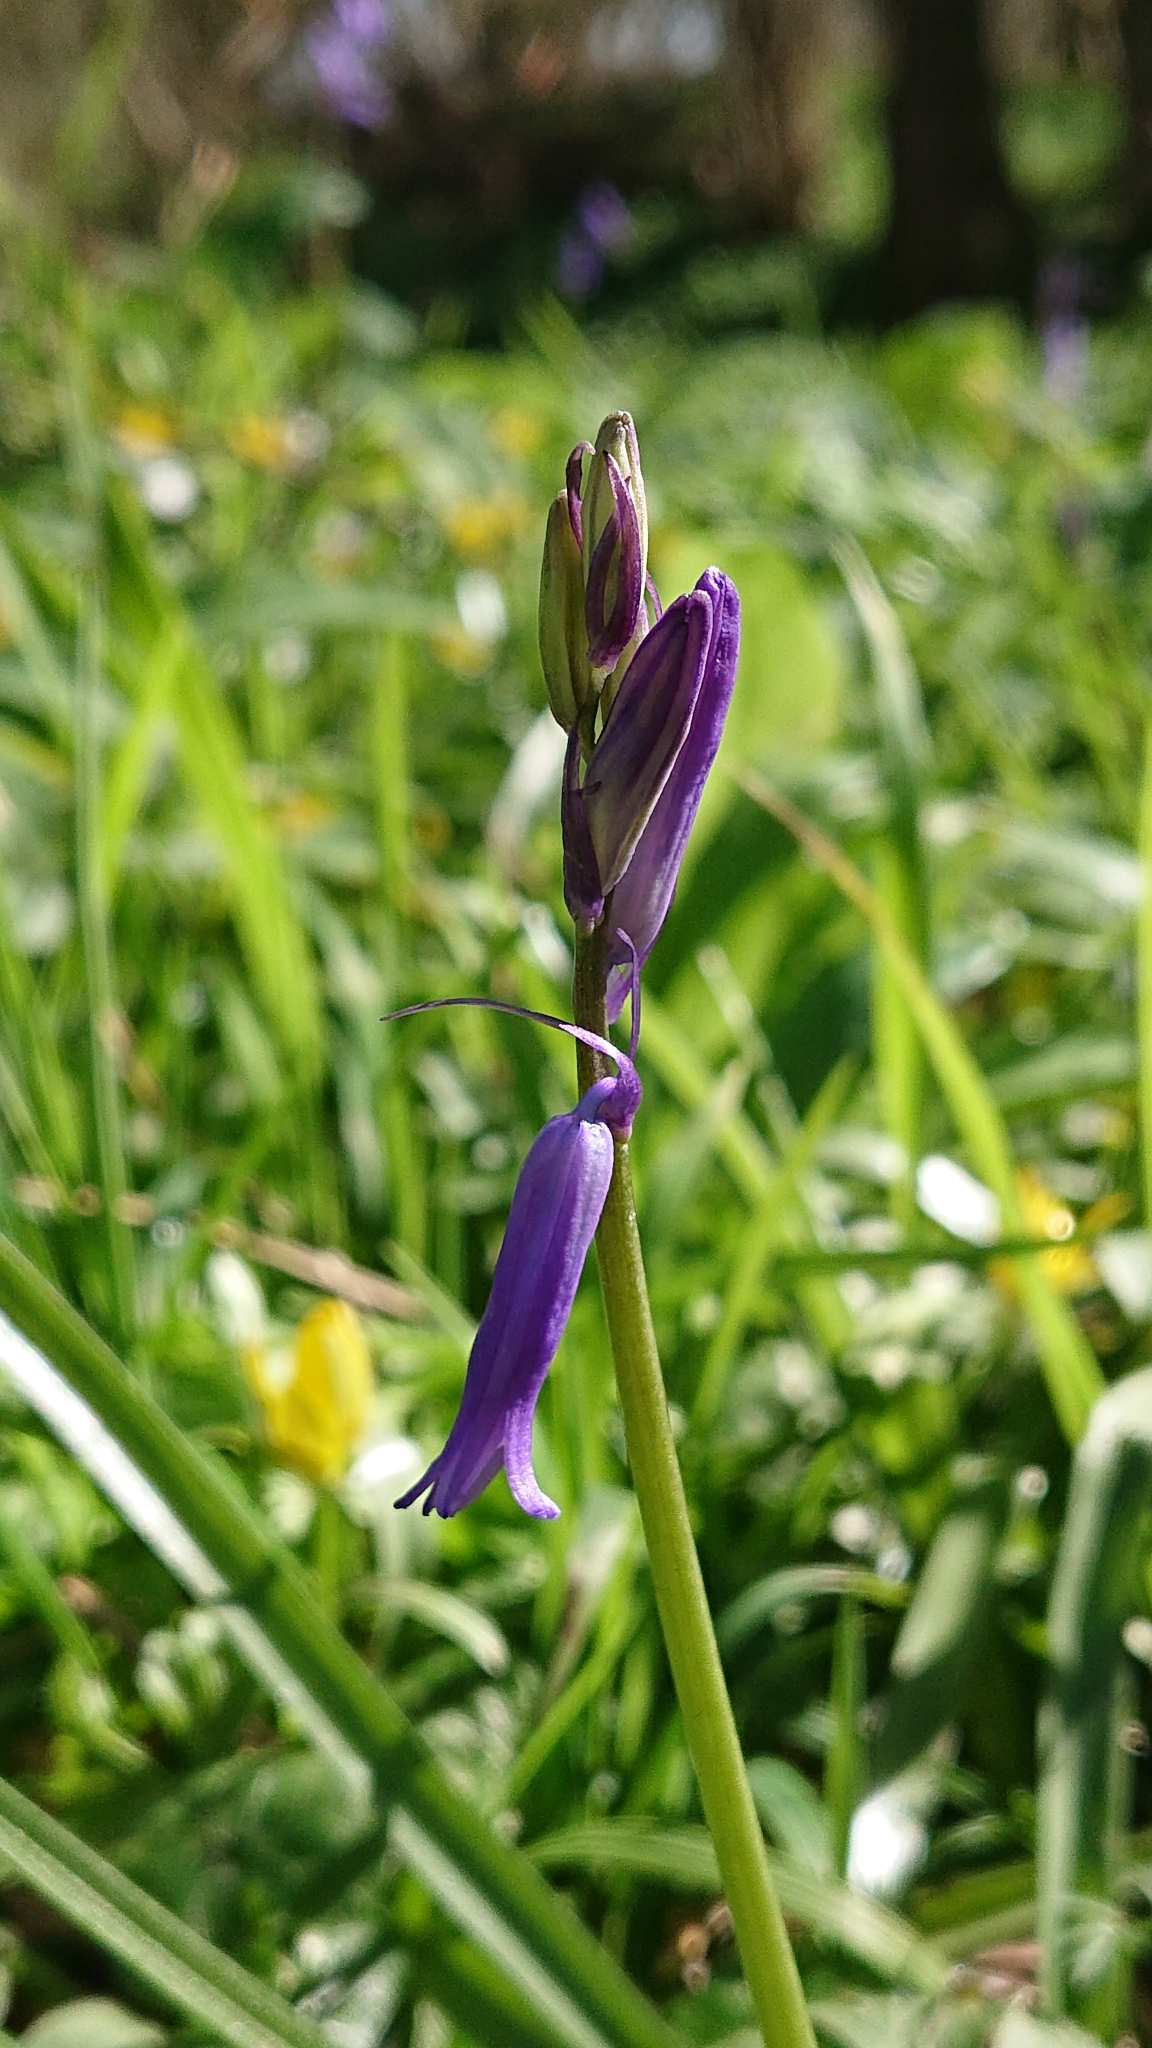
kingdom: Plantae
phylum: Tracheophyta
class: Liliopsida
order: Asparagales
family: Asparagaceae
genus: Hyacinthoides
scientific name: Hyacinthoides non-scripta
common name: Bluebell
